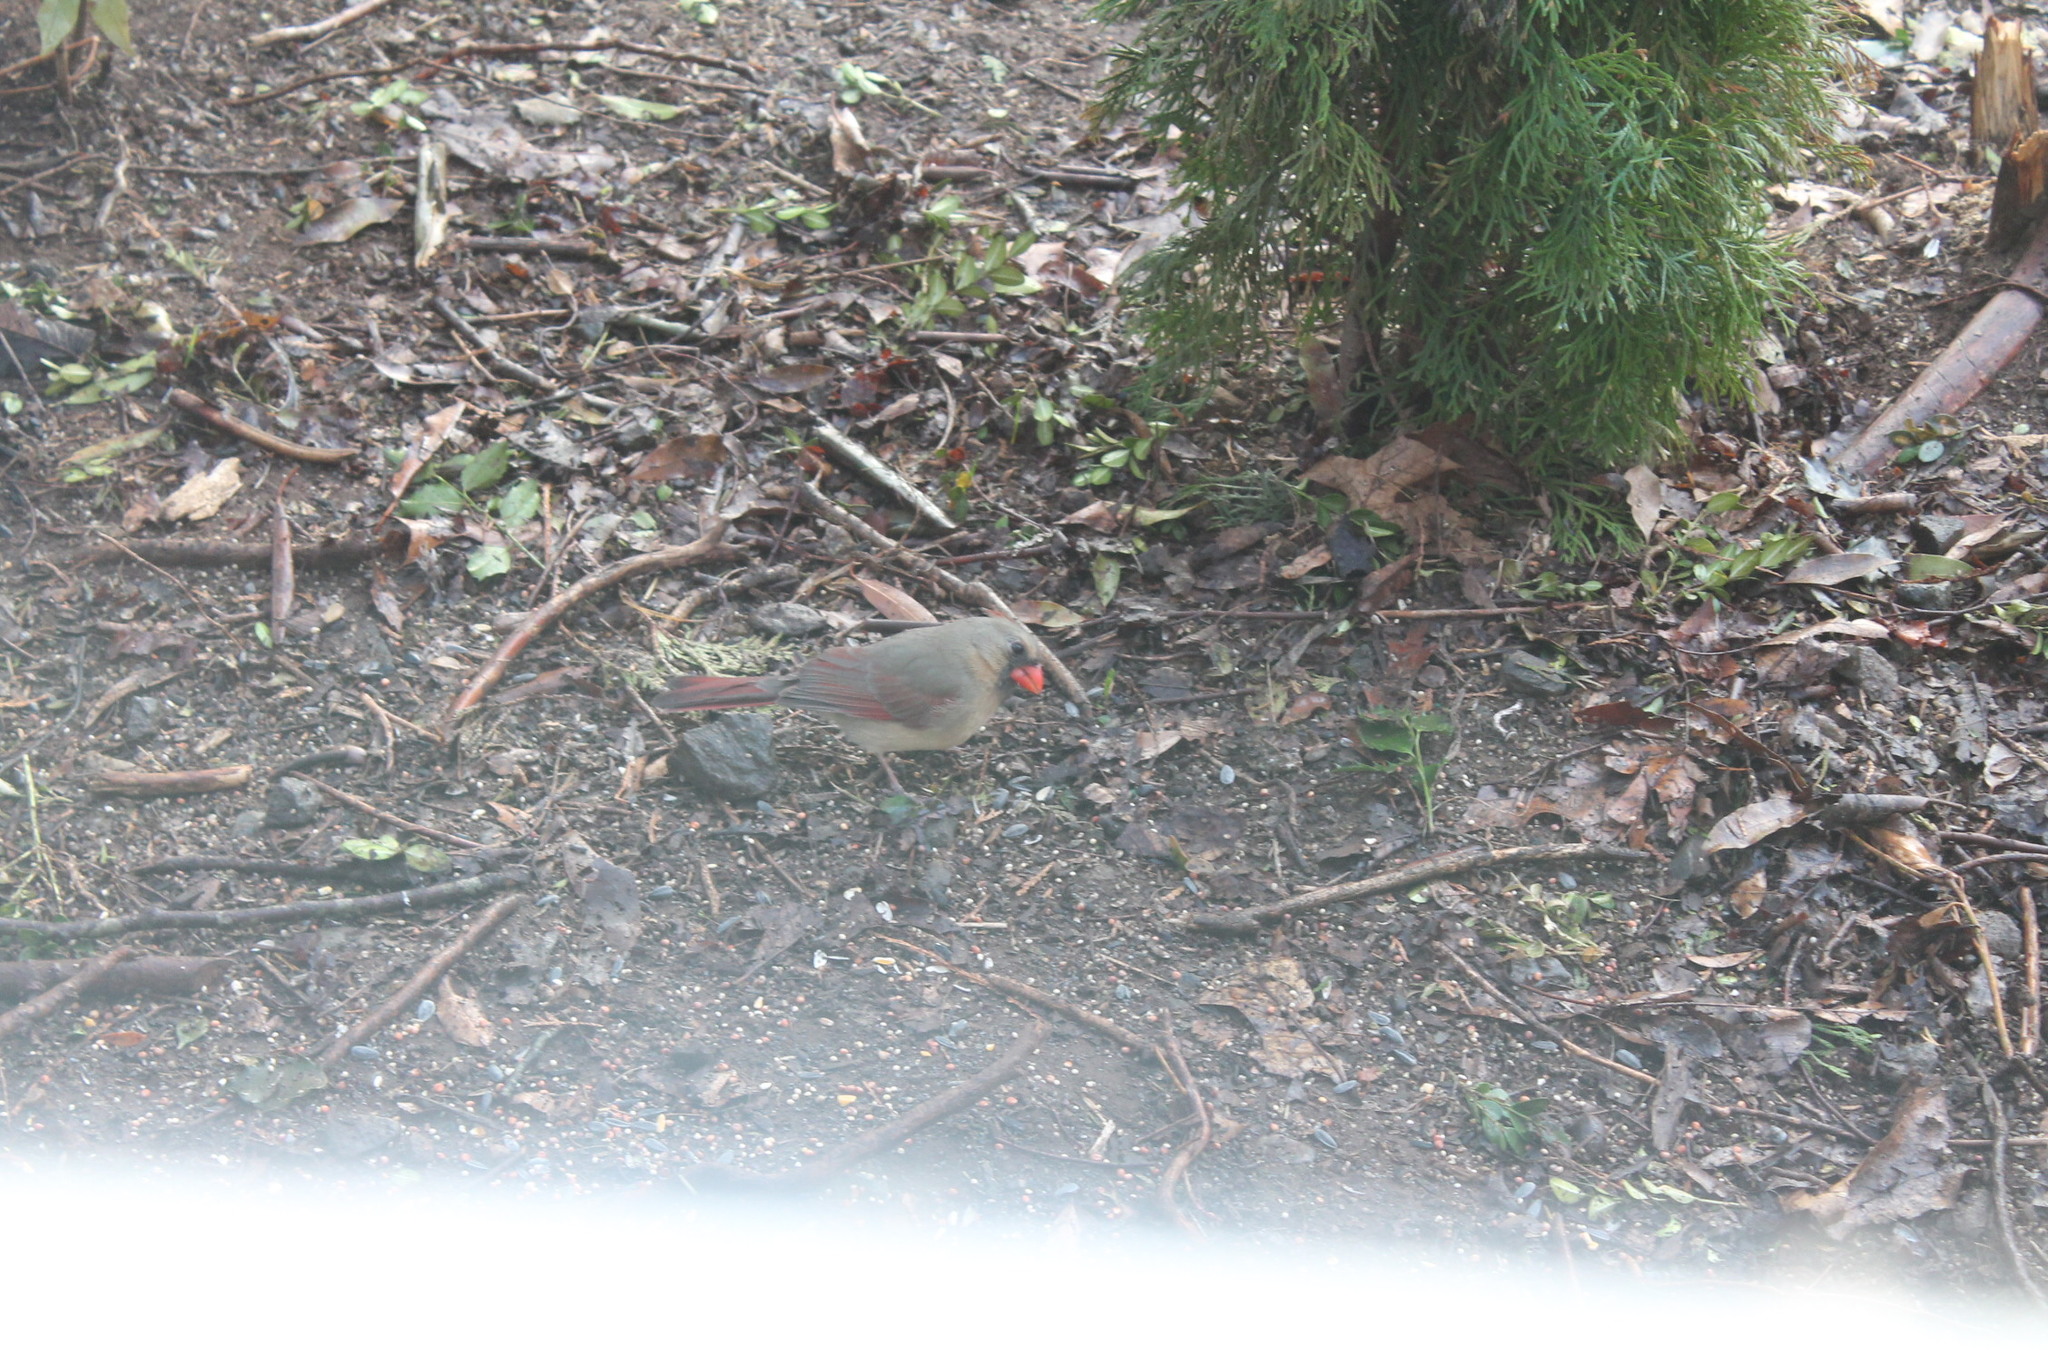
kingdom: Animalia
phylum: Chordata
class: Aves
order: Passeriformes
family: Cardinalidae
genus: Cardinalis
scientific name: Cardinalis cardinalis
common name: Northern cardinal
